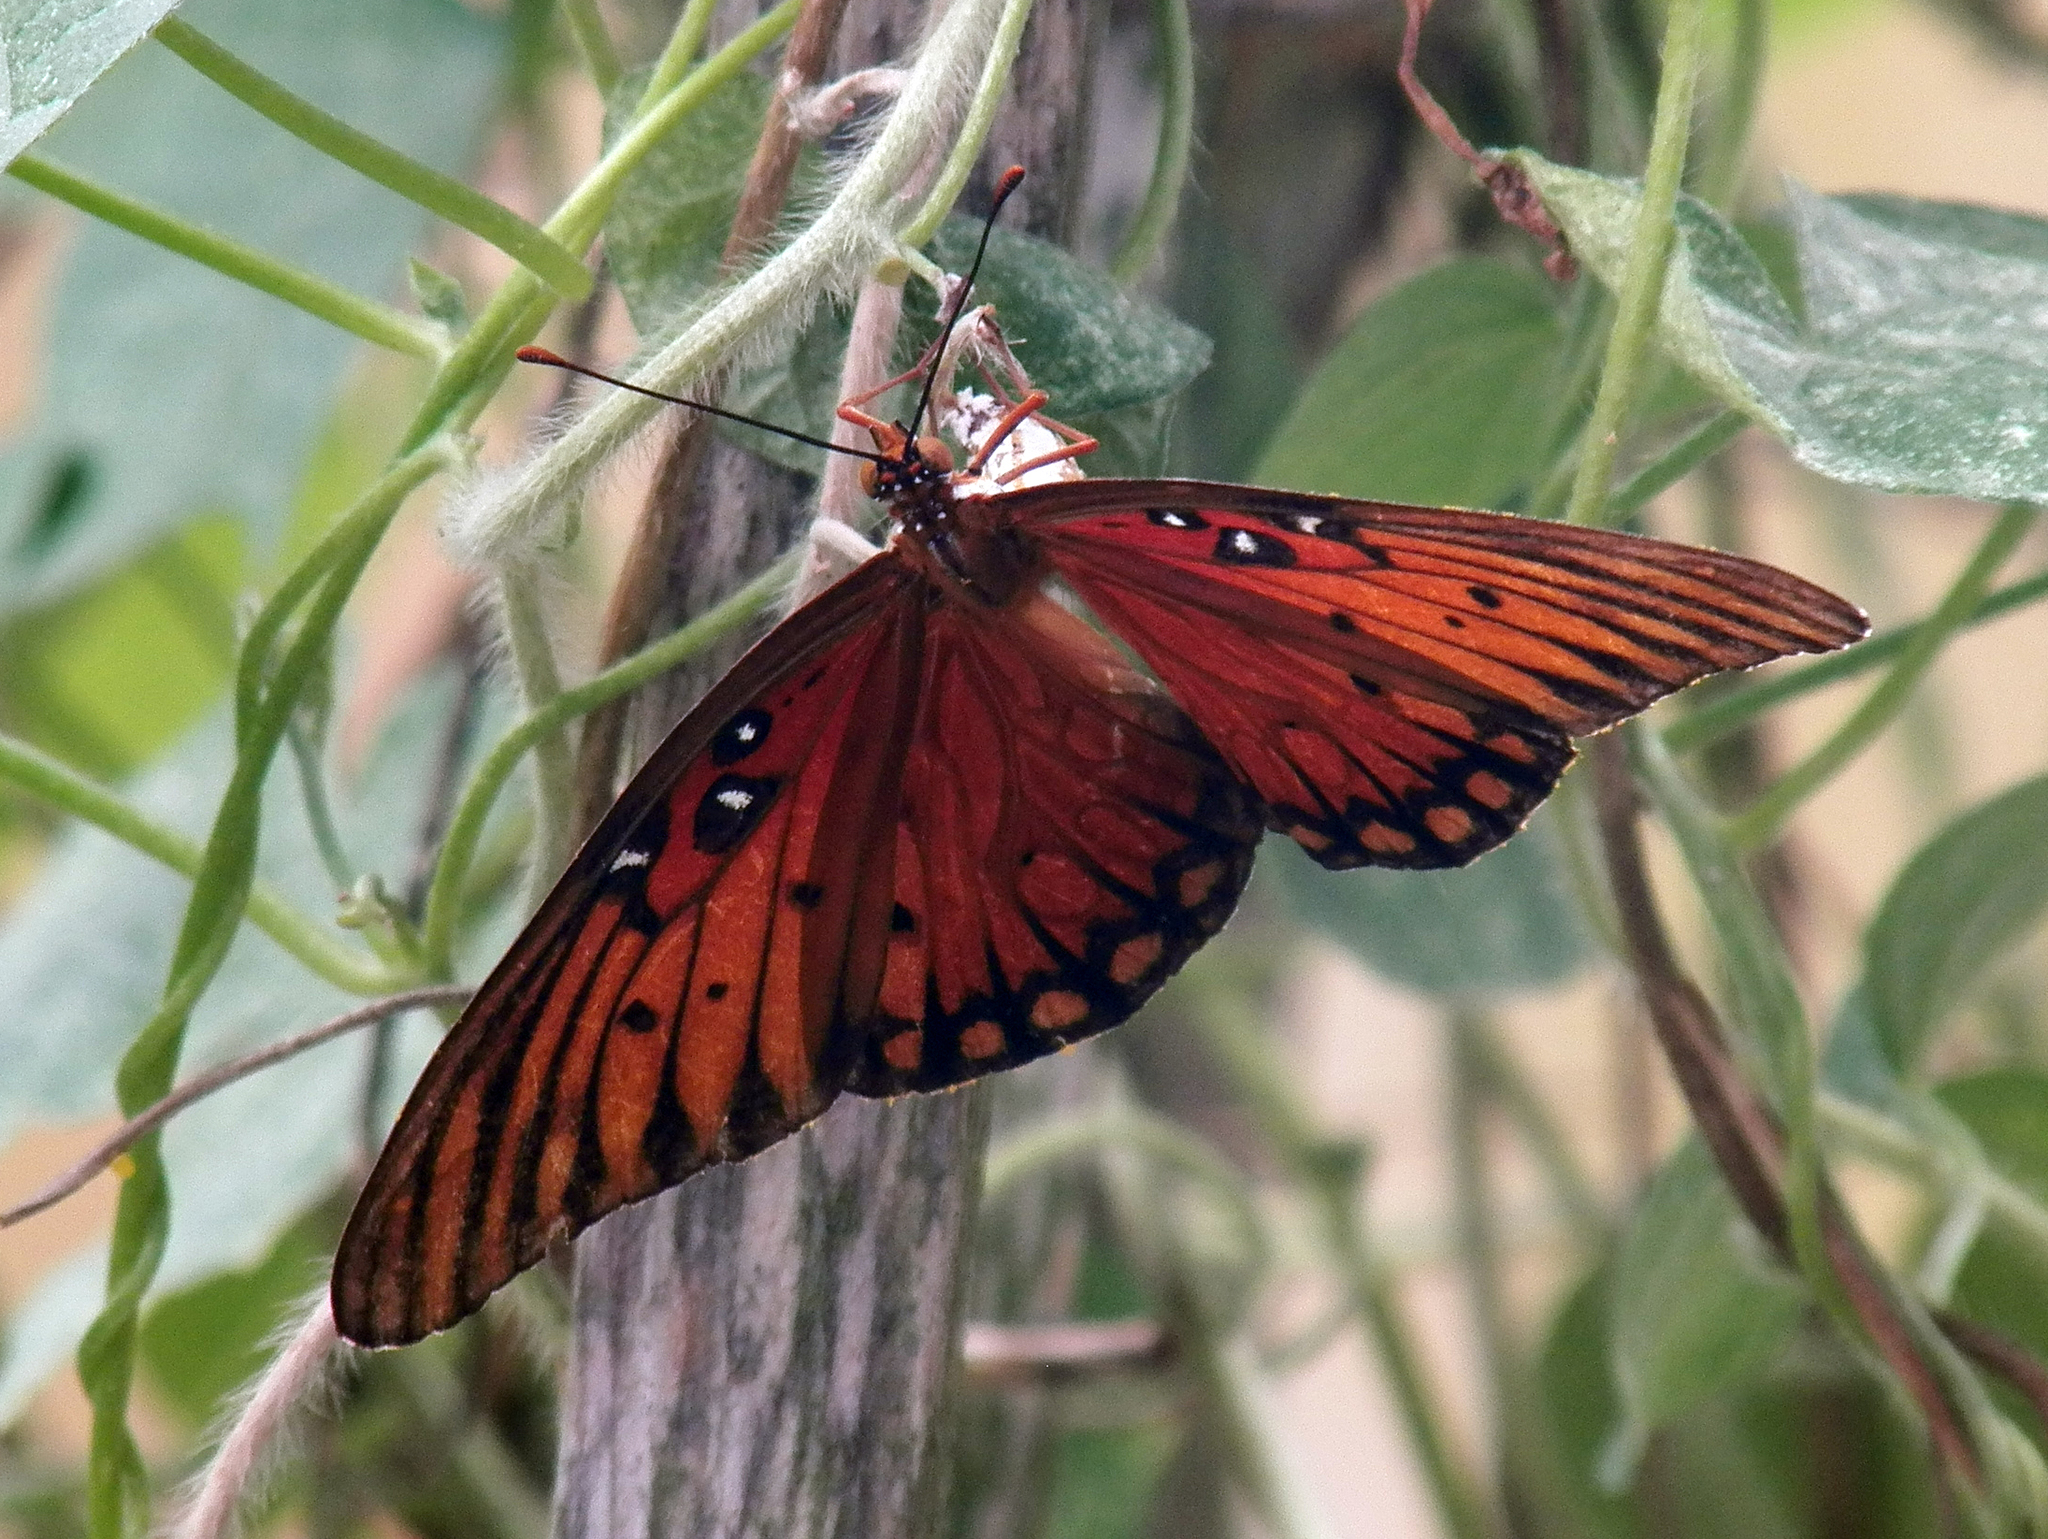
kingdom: Animalia
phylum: Arthropoda
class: Insecta
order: Lepidoptera
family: Nymphalidae
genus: Dione
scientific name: Dione vanillae
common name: Gulf fritillary
